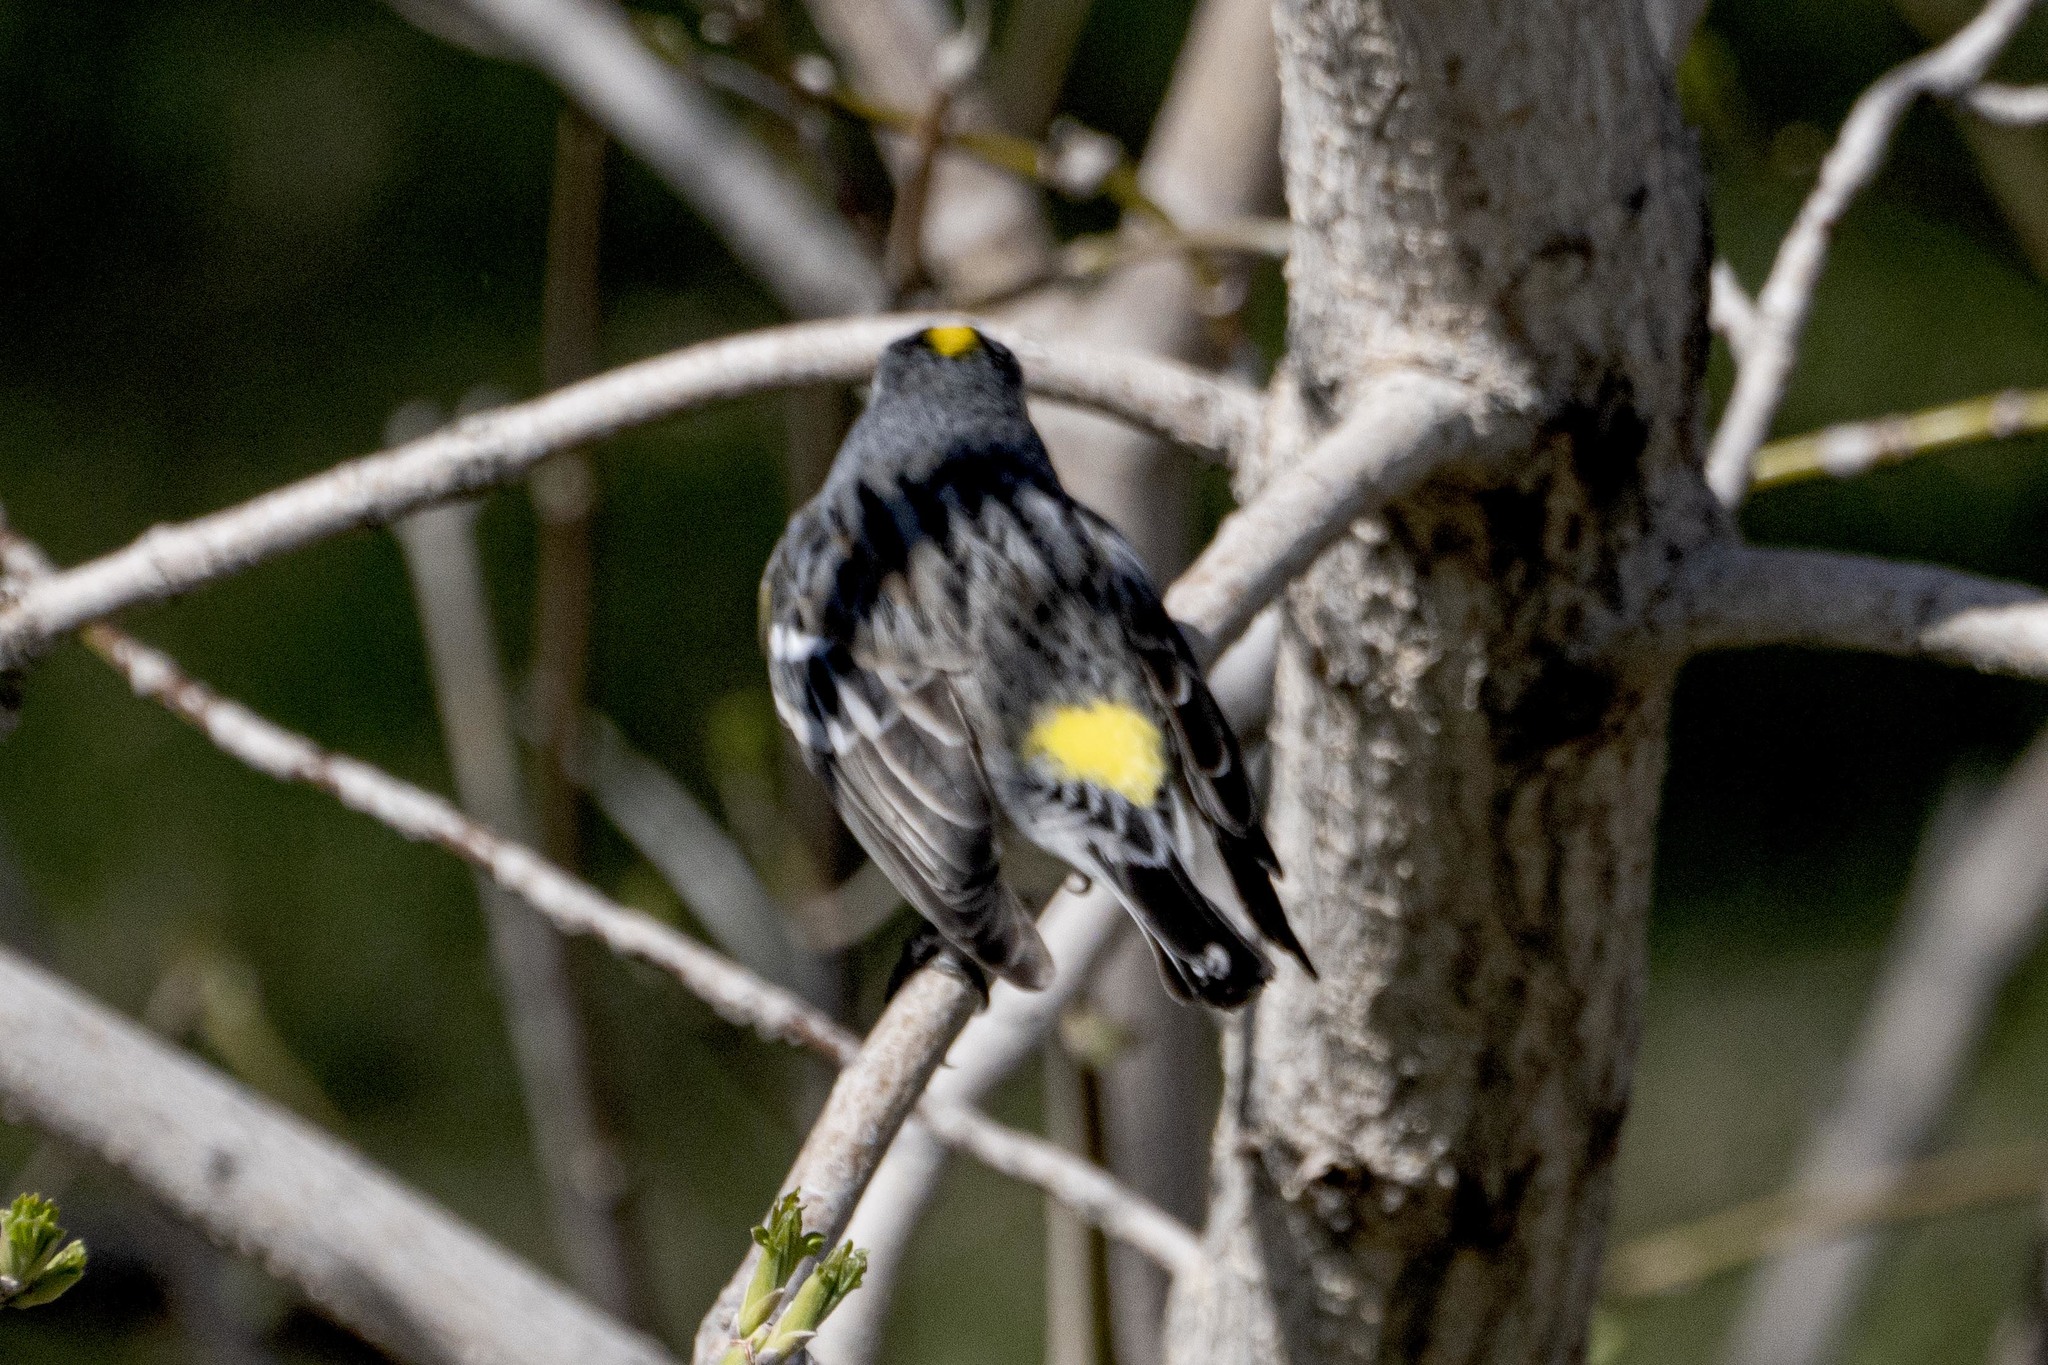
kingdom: Animalia
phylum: Chordata
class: Aves
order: Passeriformes
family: Parulidae
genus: Setophaga
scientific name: Setophaga coronata
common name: Myrtle warbler
